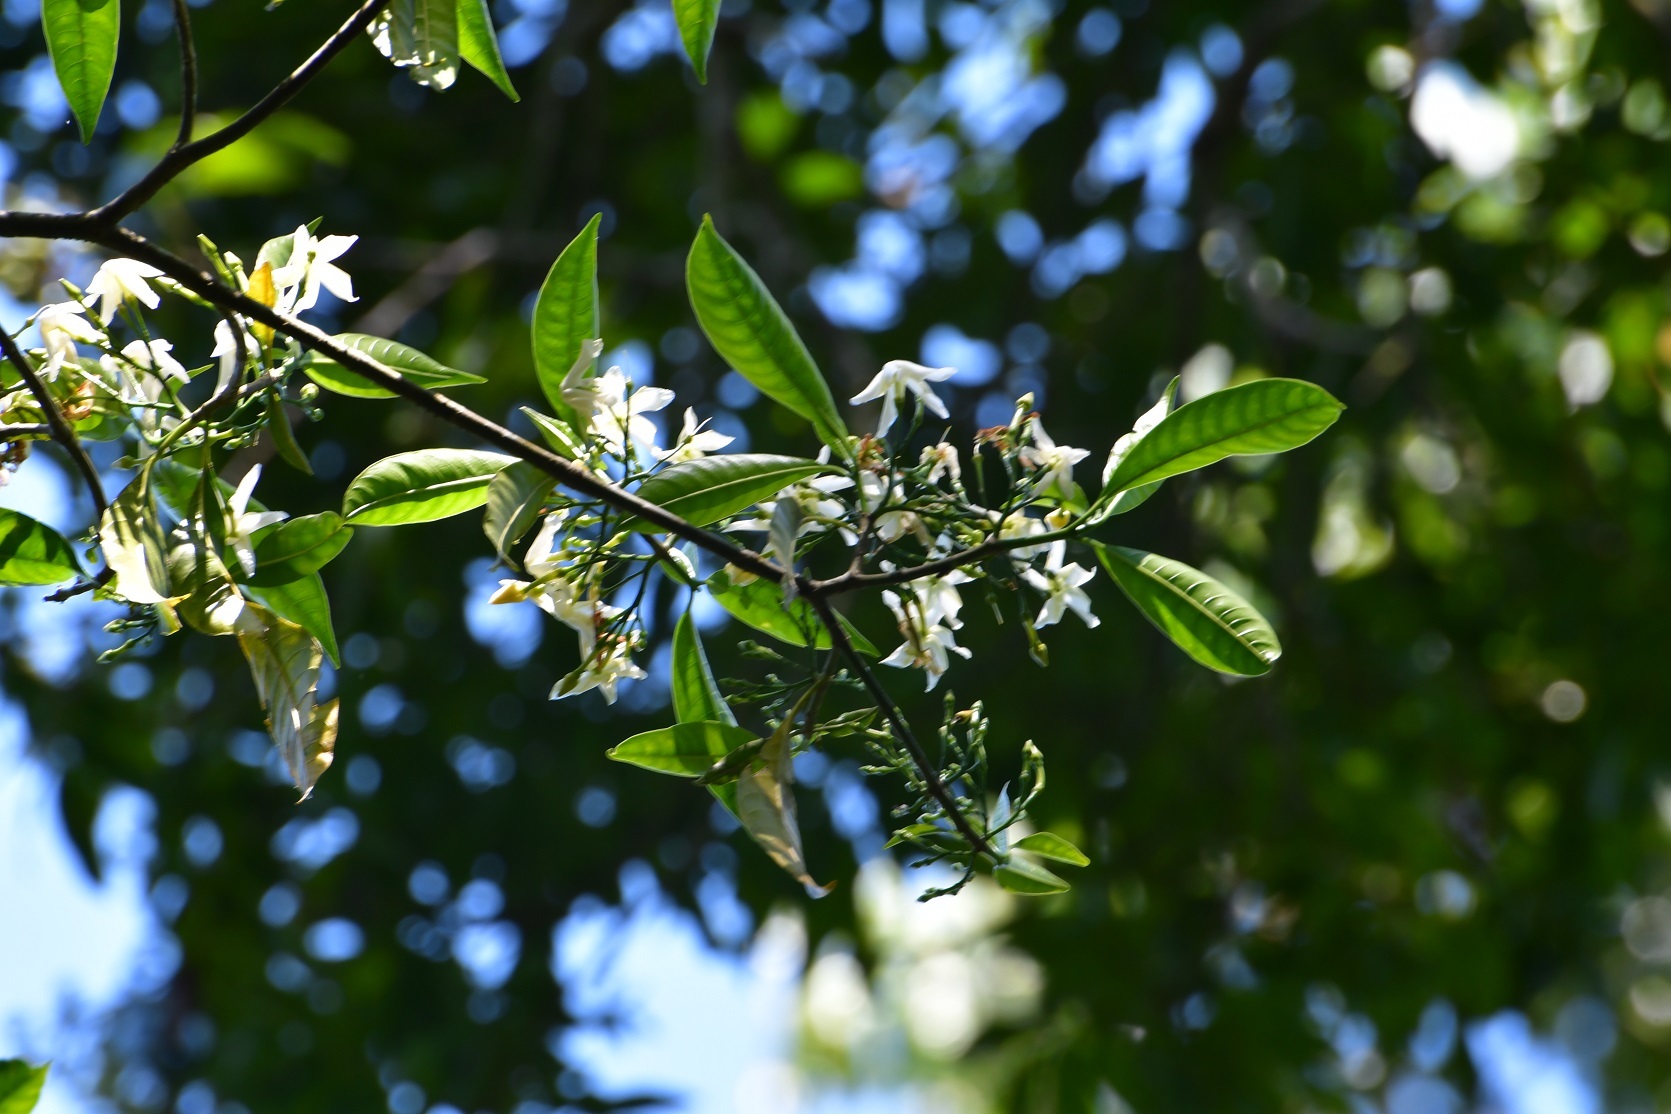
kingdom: Plantae
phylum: Tracheophyta
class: Magnoliopsida
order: Gentianales
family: Apocynaceae
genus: Tabernaemontana
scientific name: Tabernaemontana amygdalifolia
